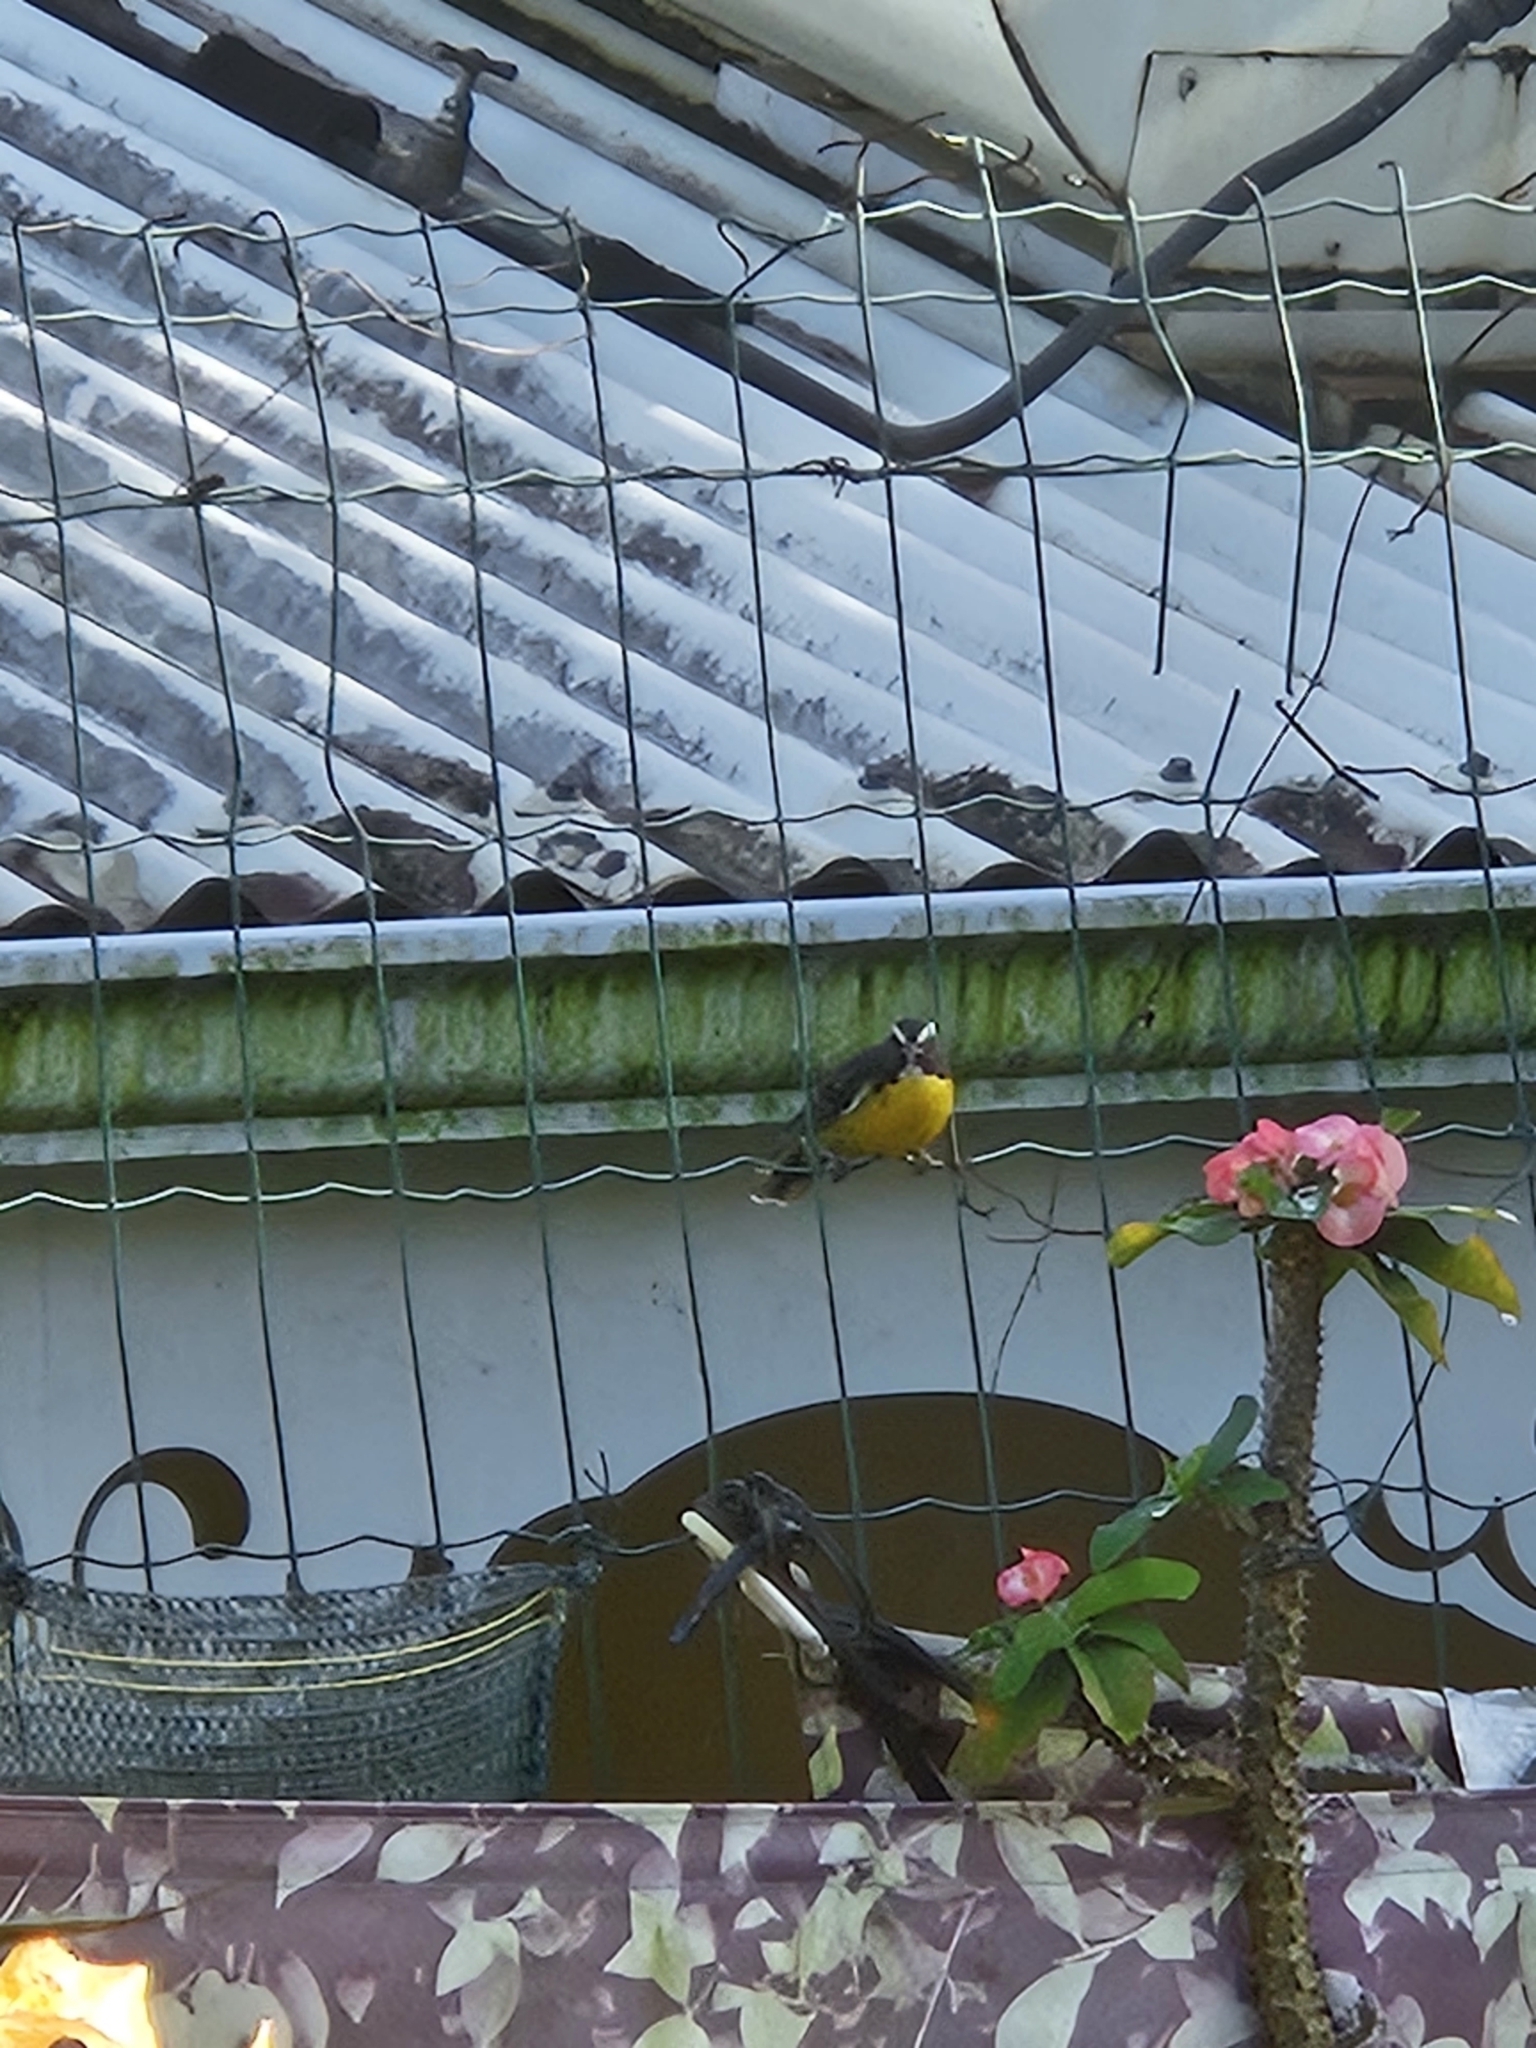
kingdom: Animalia
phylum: Chordata
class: Aves
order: Passeriformes
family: Thraupidae
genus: Coereba
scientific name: Coereba flaveola
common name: Bananaquit
